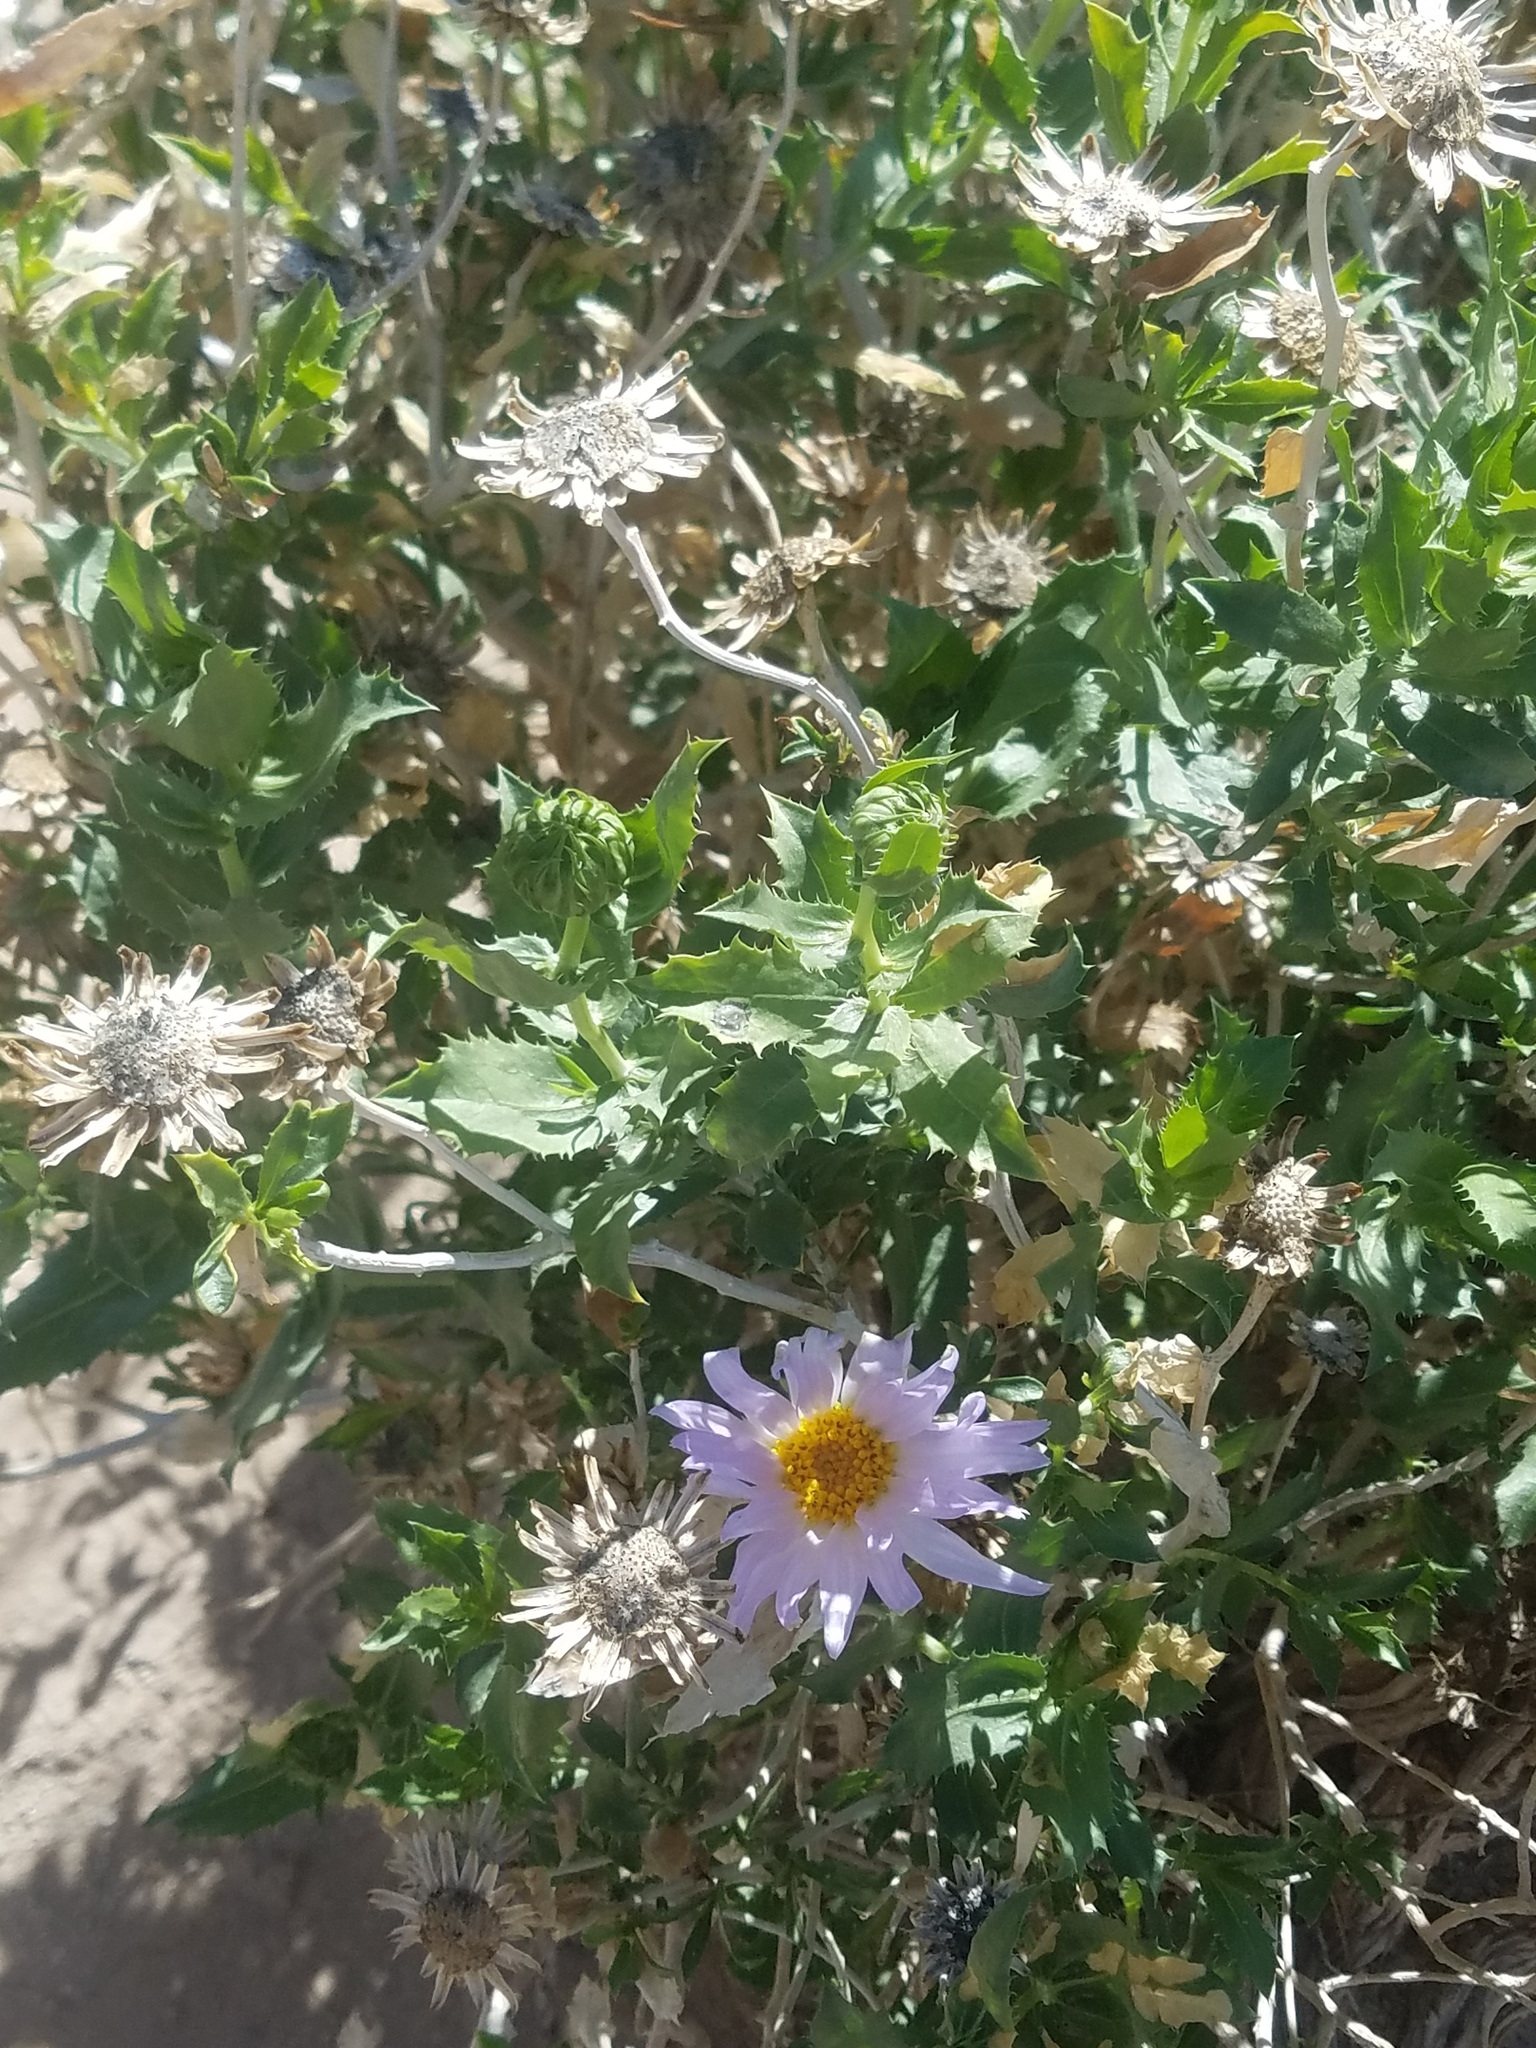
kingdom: Plantae
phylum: Tracheophyta
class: Magnoliopsida
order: Asterales
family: Asteraceae
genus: Xylorhiza
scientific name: Xylorhiza orcuttii
